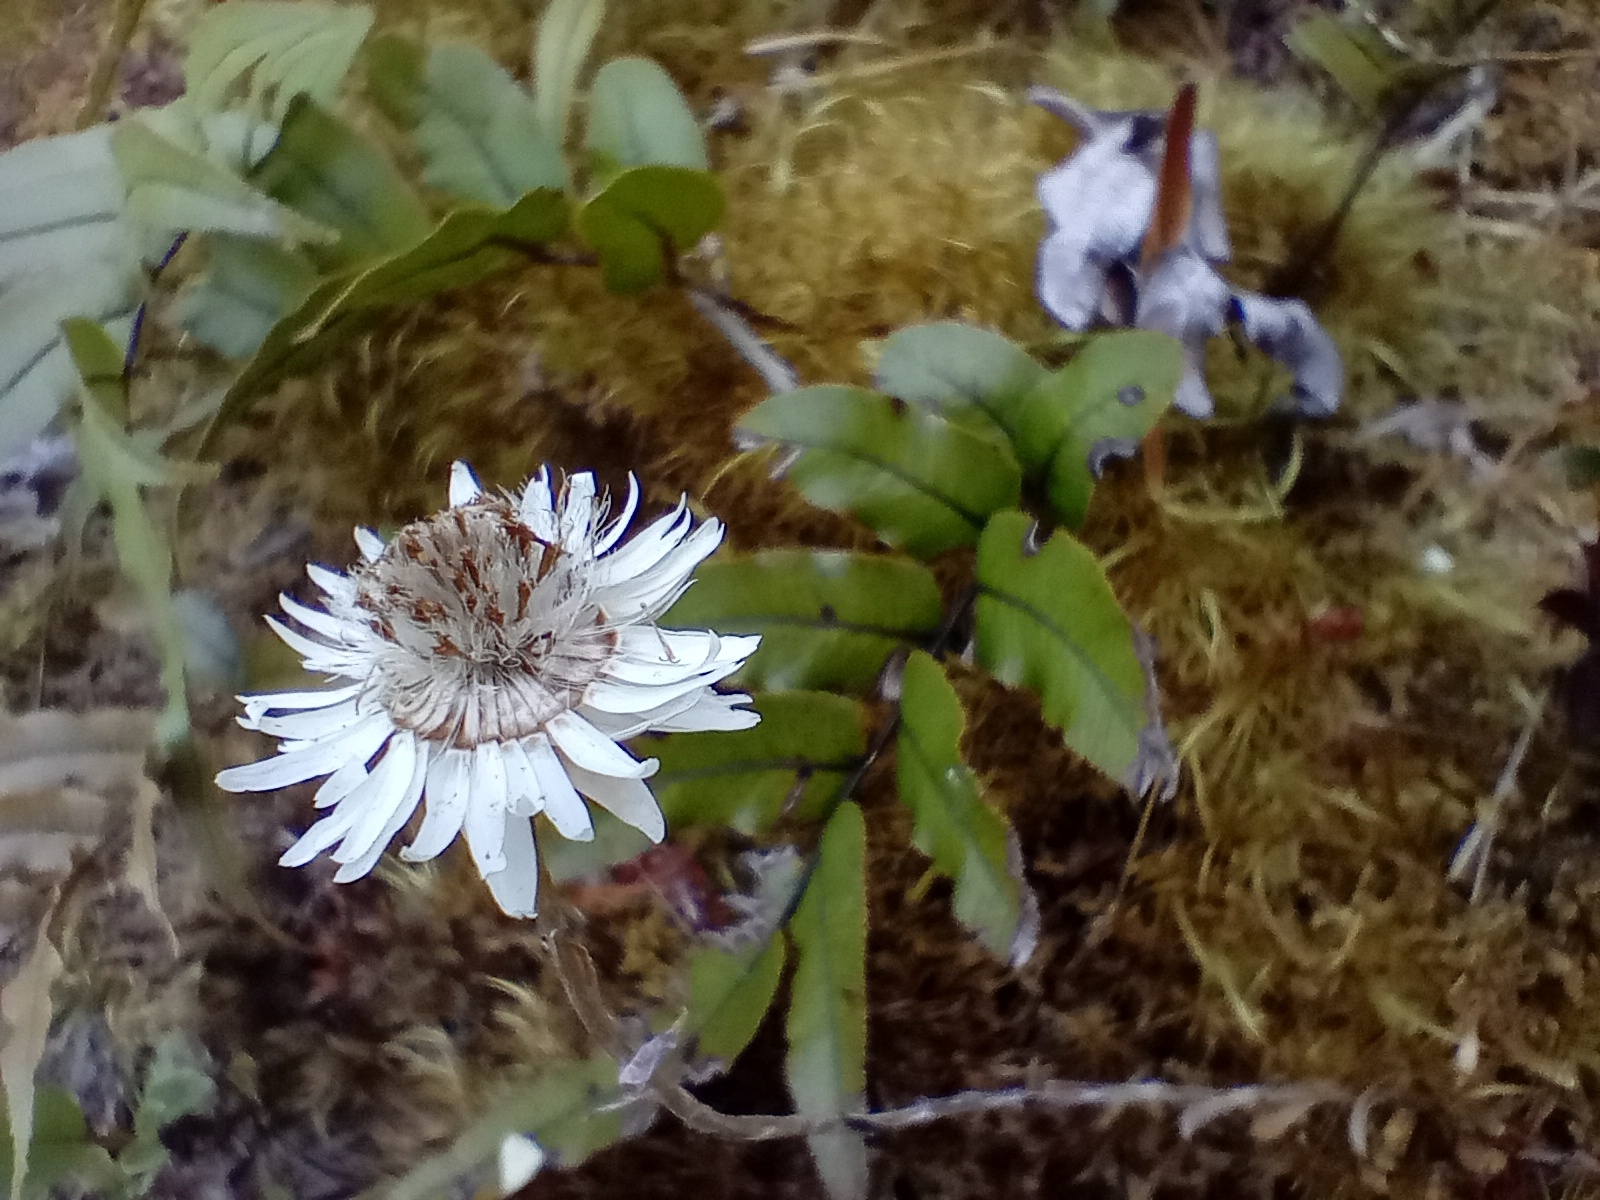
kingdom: Plantae
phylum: Tracheophyta
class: Magnoliopsida
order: Asterales
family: Asteraceae
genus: Anaphalioides
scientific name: Anaphalioides bellidioides
